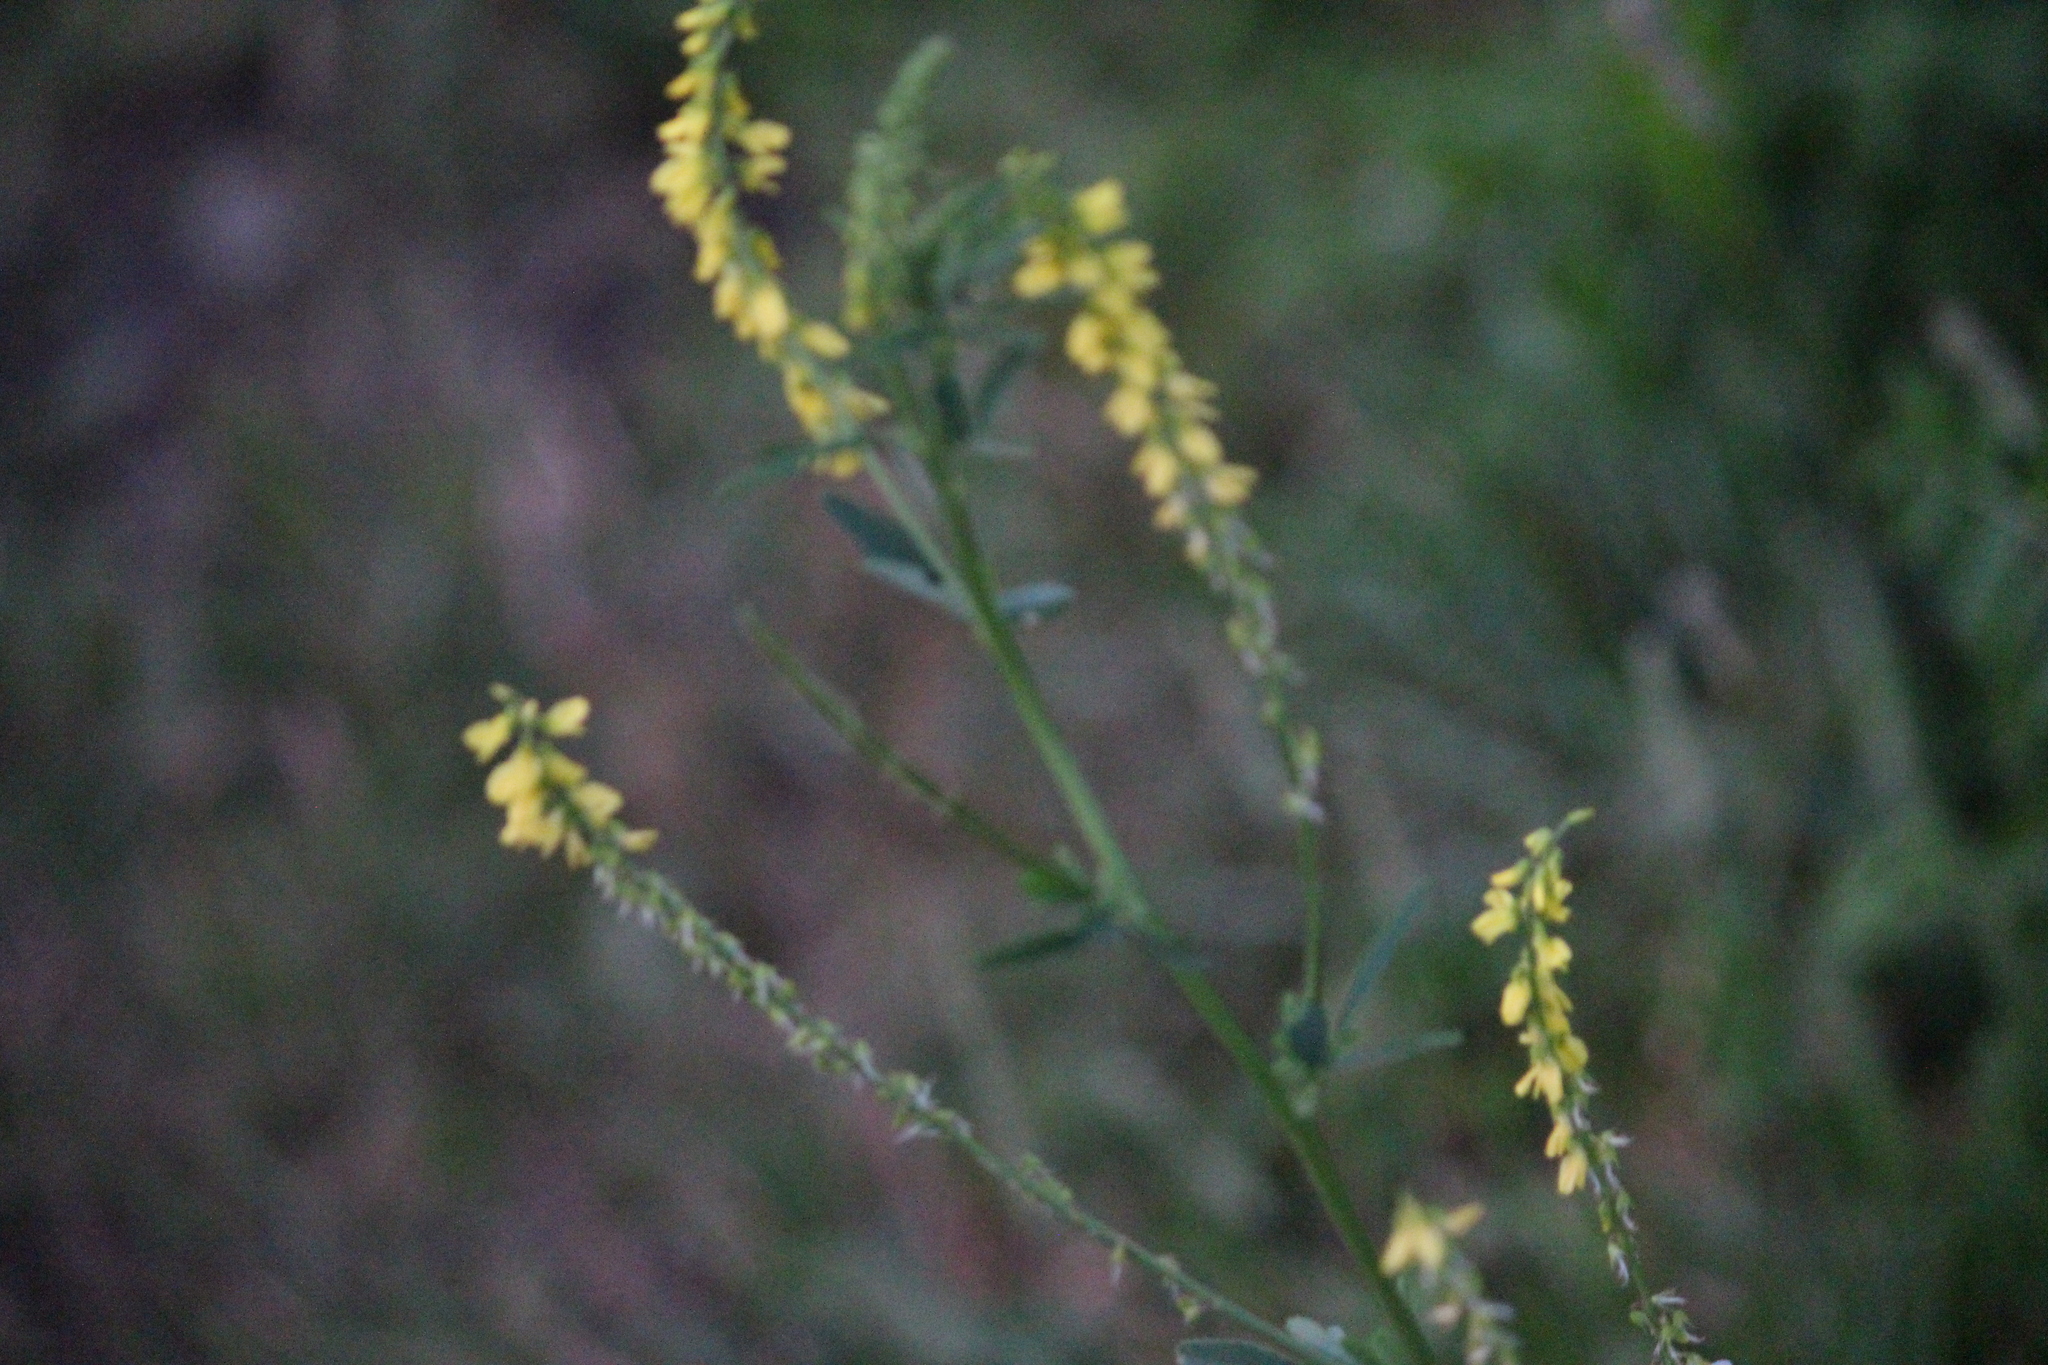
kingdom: Plantae
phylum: Tracheophyta
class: Magnoliopsida
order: Fabales
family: Fabaceae
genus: Melilotus
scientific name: Melilotus officinalis
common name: Sweetclover
